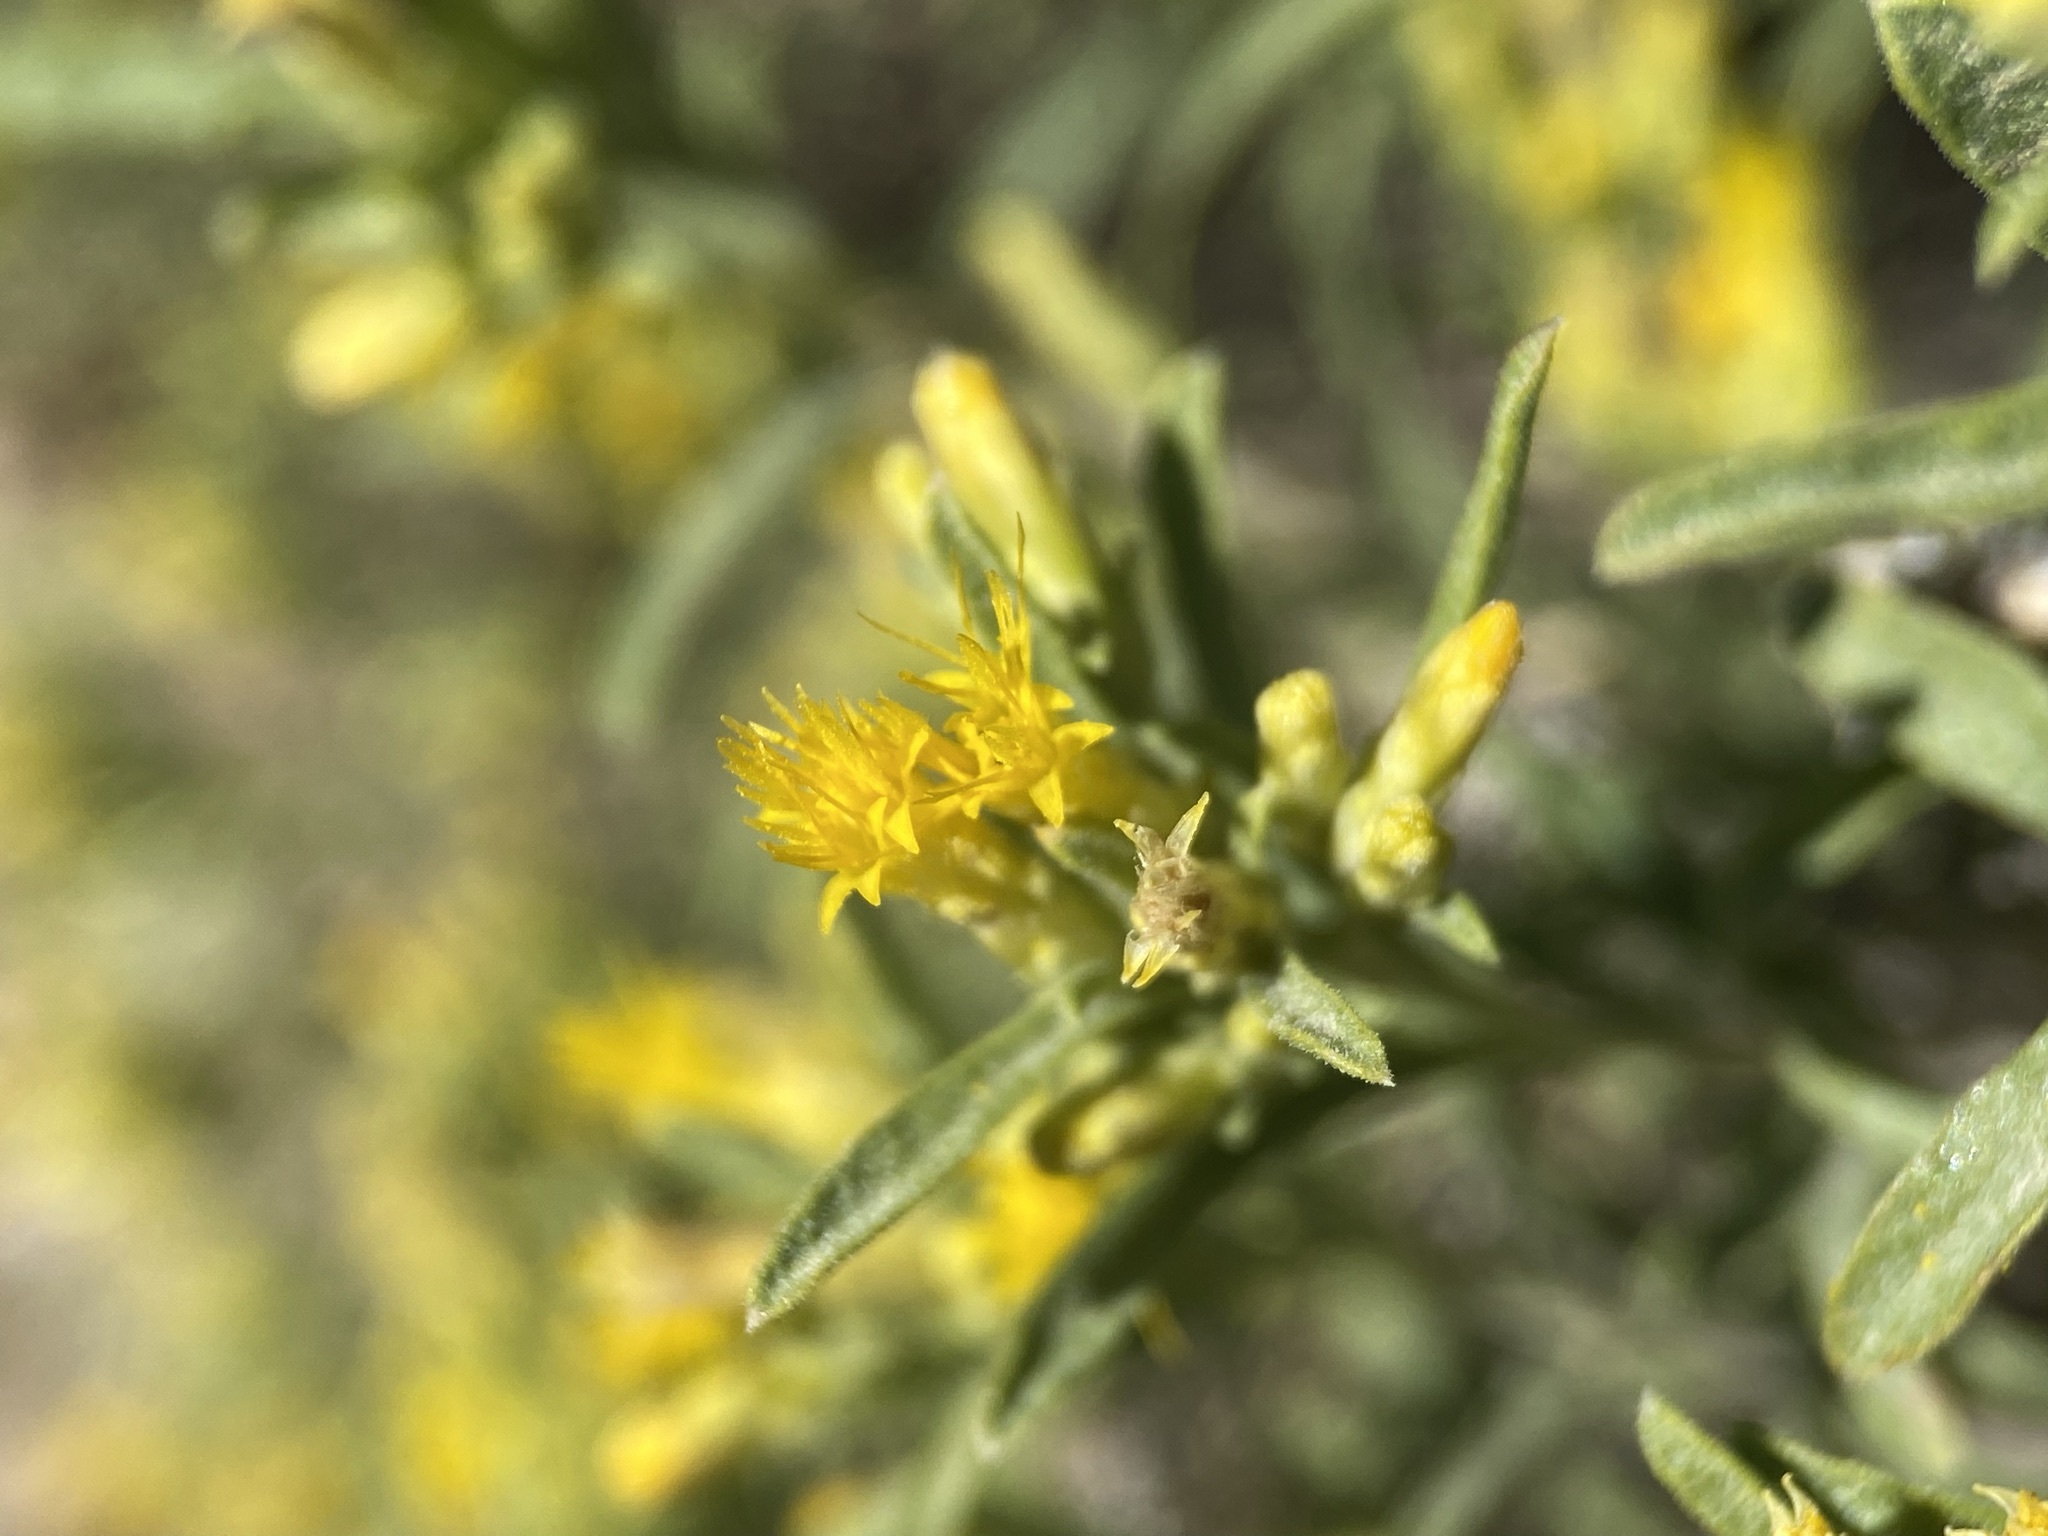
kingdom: Plantae
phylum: Tracheophyta
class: Magnoliopsida
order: Asterales
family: Asteraceae
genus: Chrysothamnus
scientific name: Chrysothamnus humilis
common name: Truckee rabbitbrush
